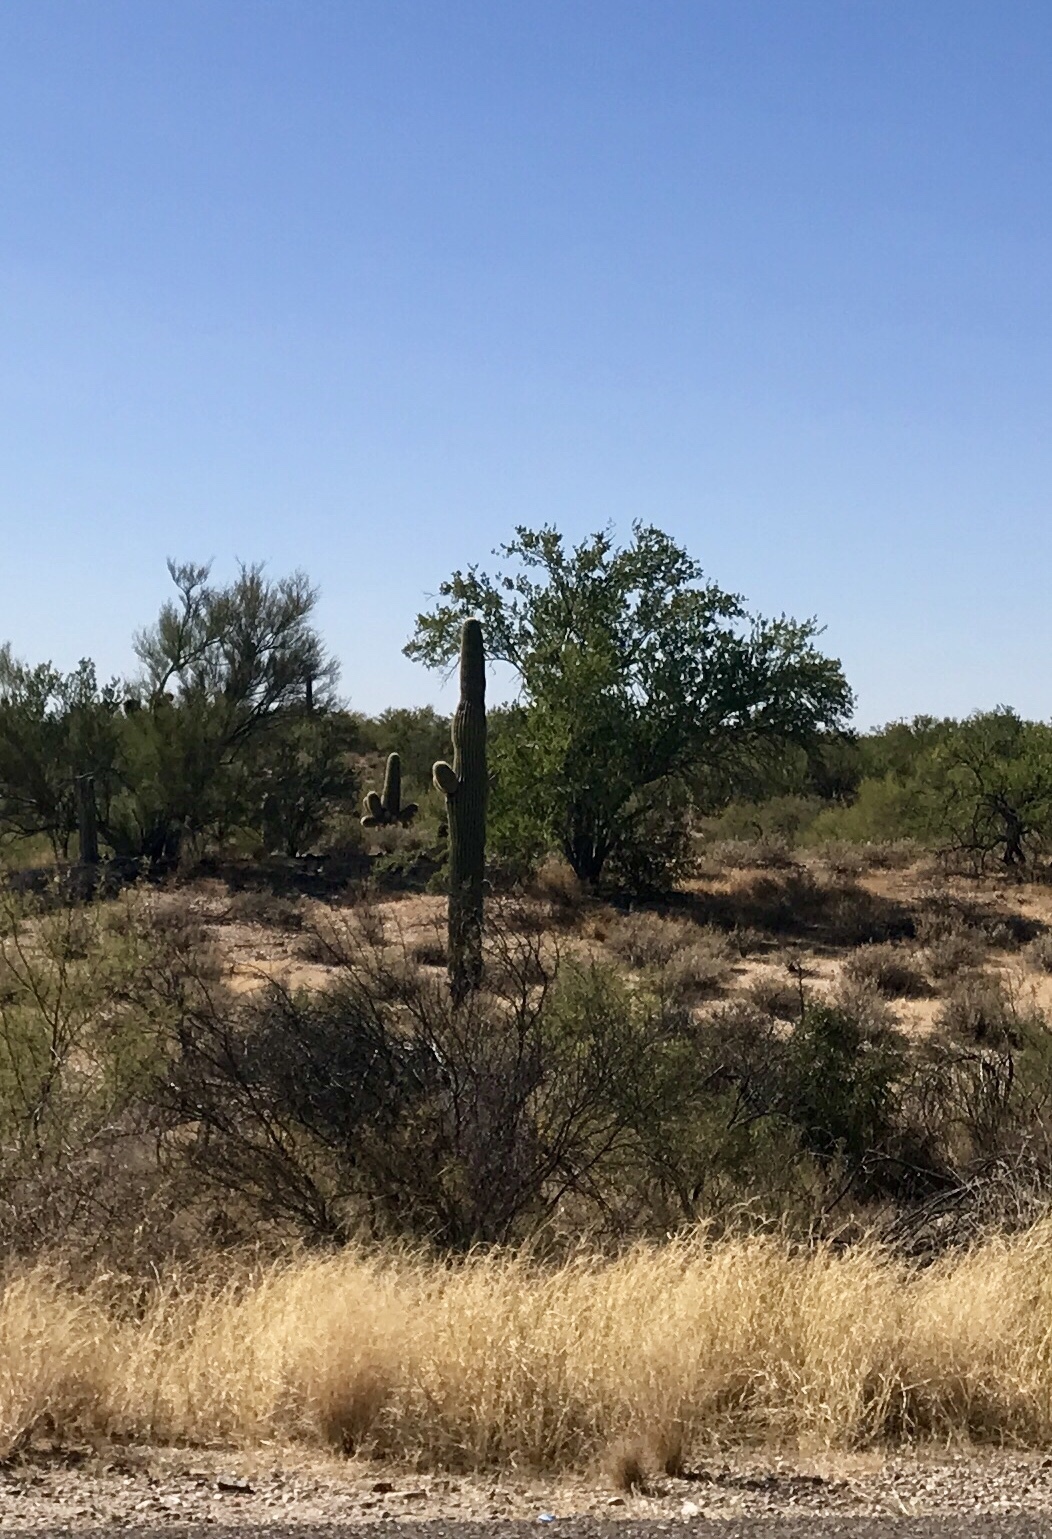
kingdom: Plantae
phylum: Tracheophyta
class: Magnoliopsida
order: Caryophyllales
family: Cactaceae
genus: Carnegiea
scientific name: Carnegiea gigantea
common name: Saguaro
